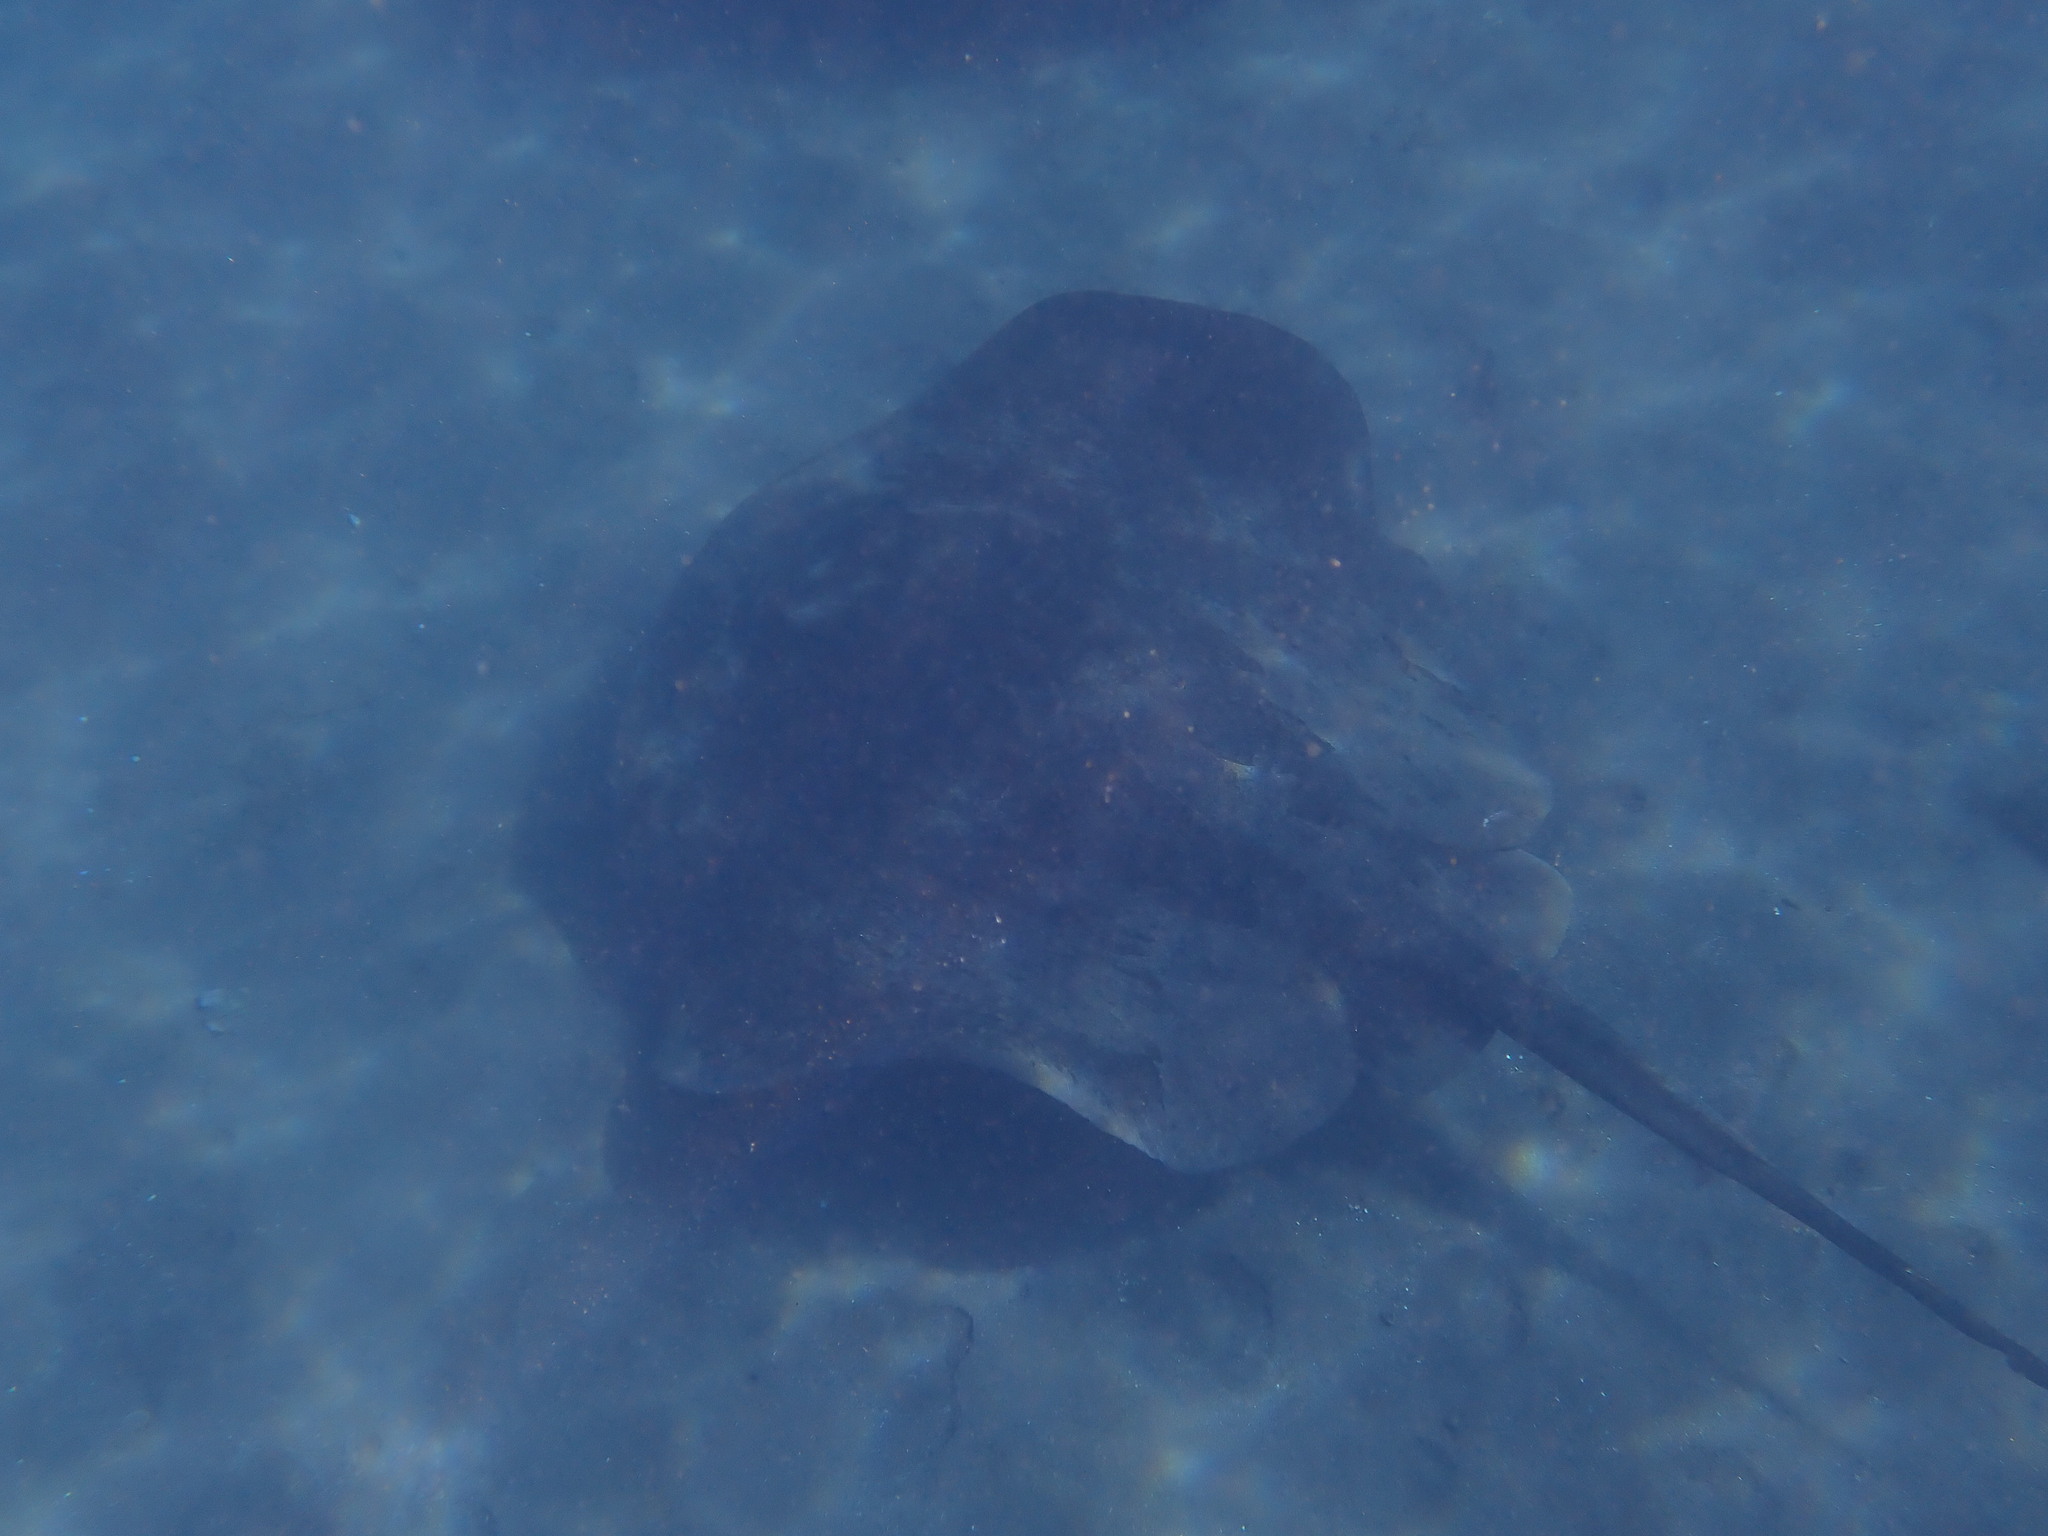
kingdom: Animalia
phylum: Chordata
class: Elasmobranchii
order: Myliobatiformes
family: Dasyatidae
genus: Taeniura
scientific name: Taeniura grabata
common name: Round stingray
